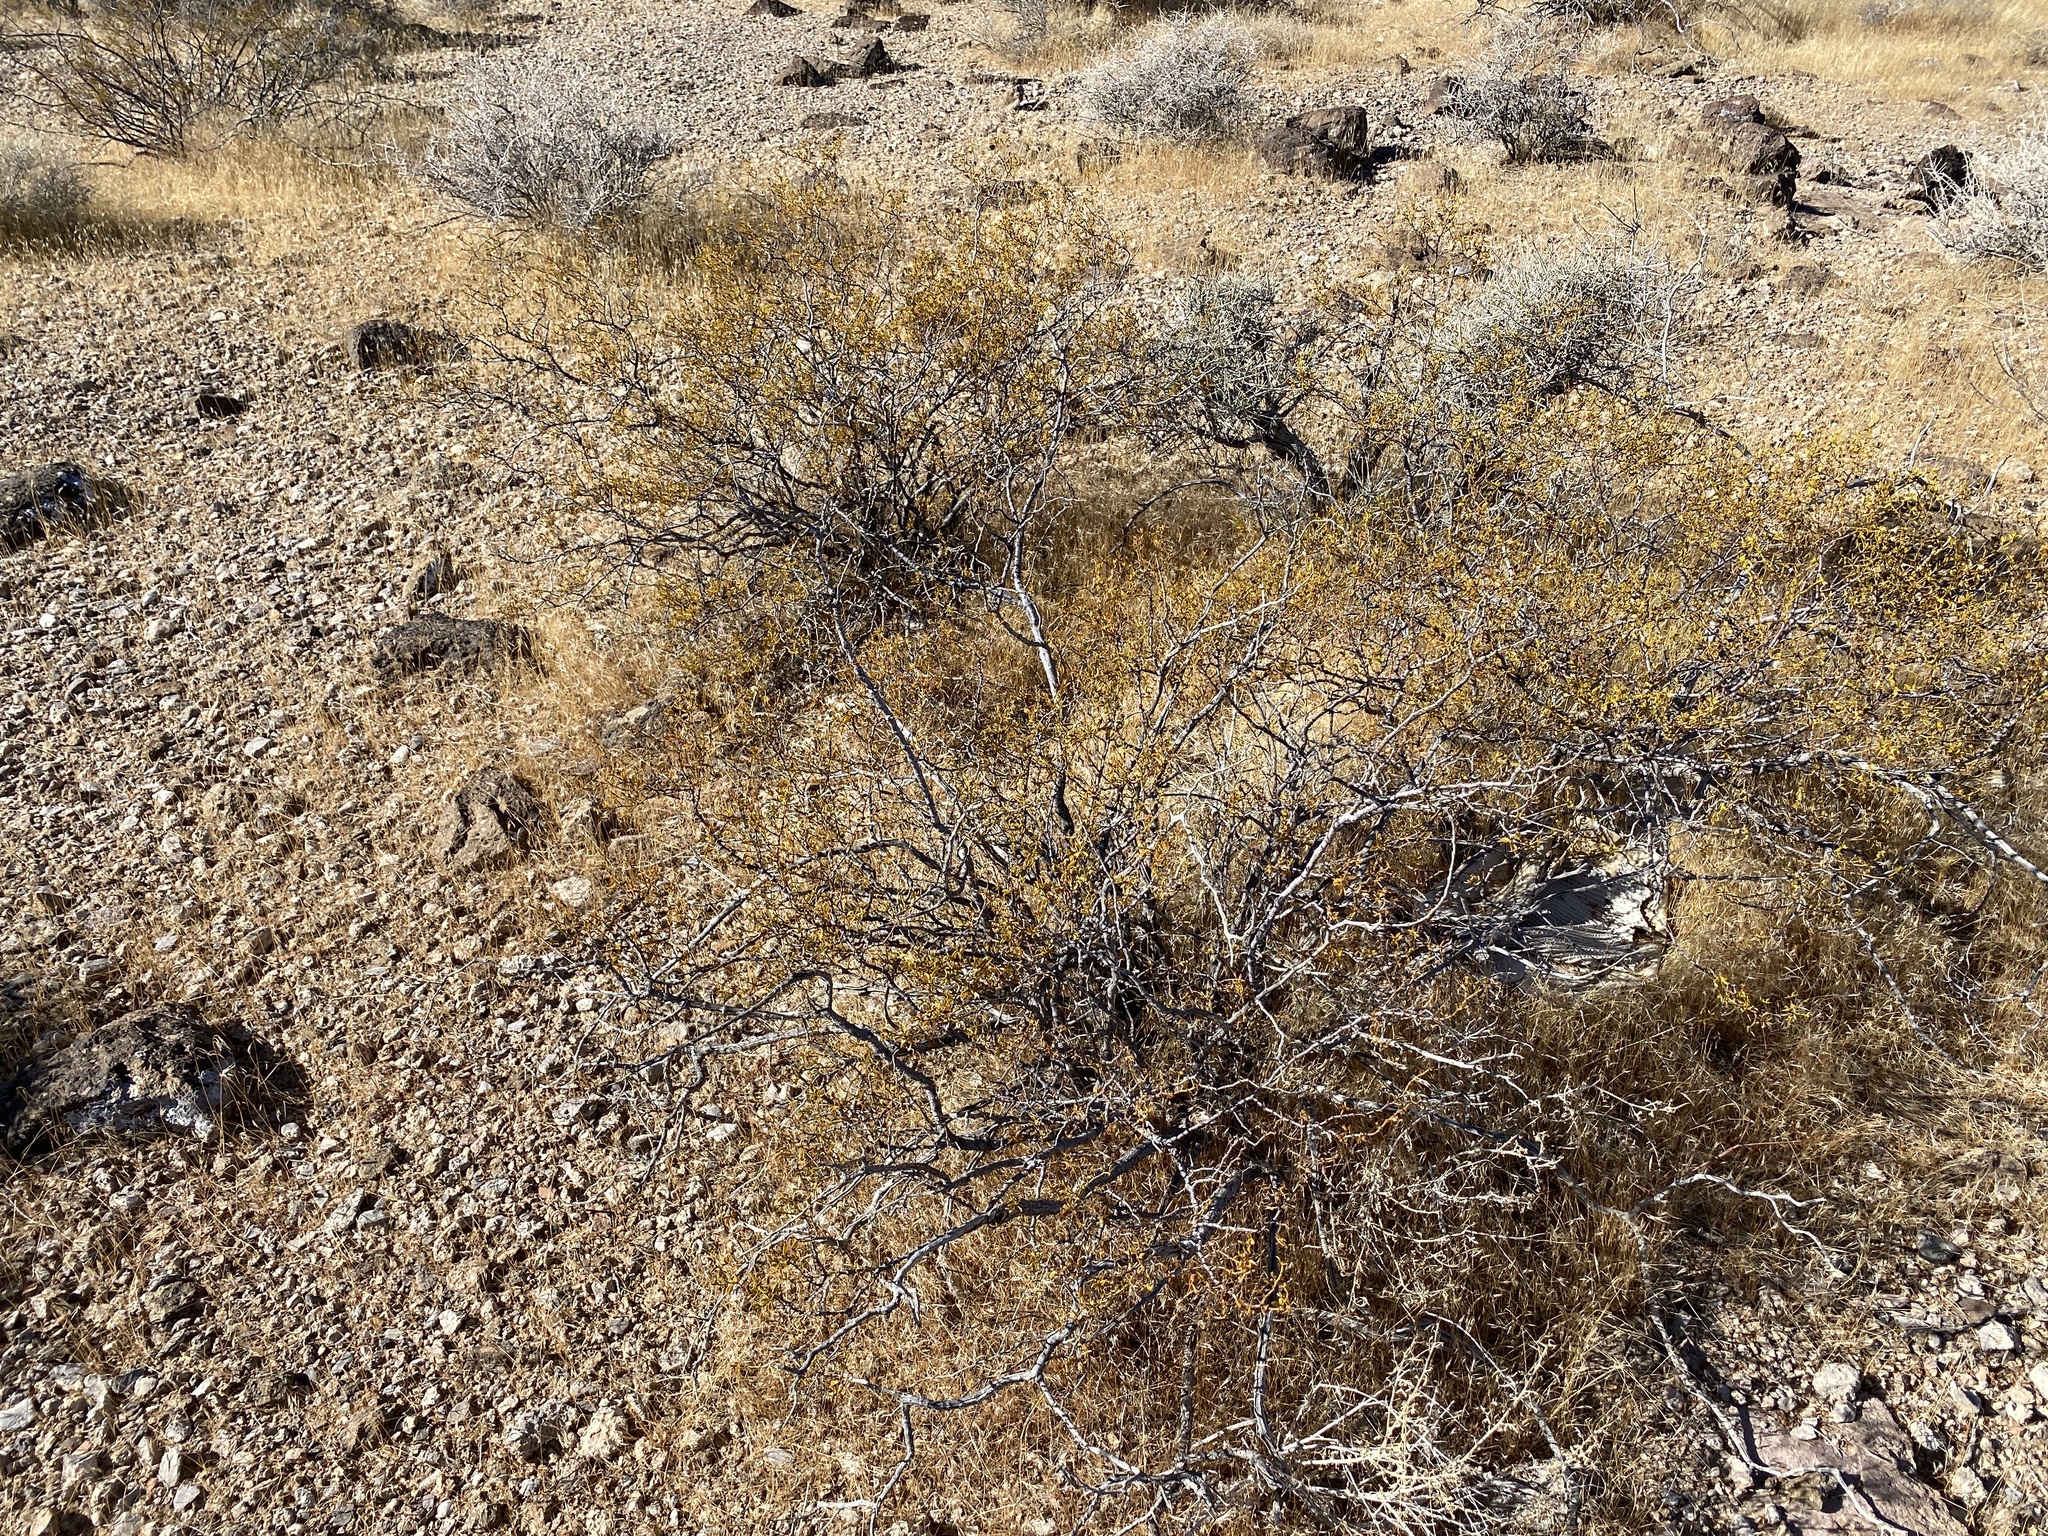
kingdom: Plantae
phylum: Tracheophyta
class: Magnoliopsida
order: Zygophyllales
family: Zygophyllaceae
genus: Larrea
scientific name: Larrea tridentata
